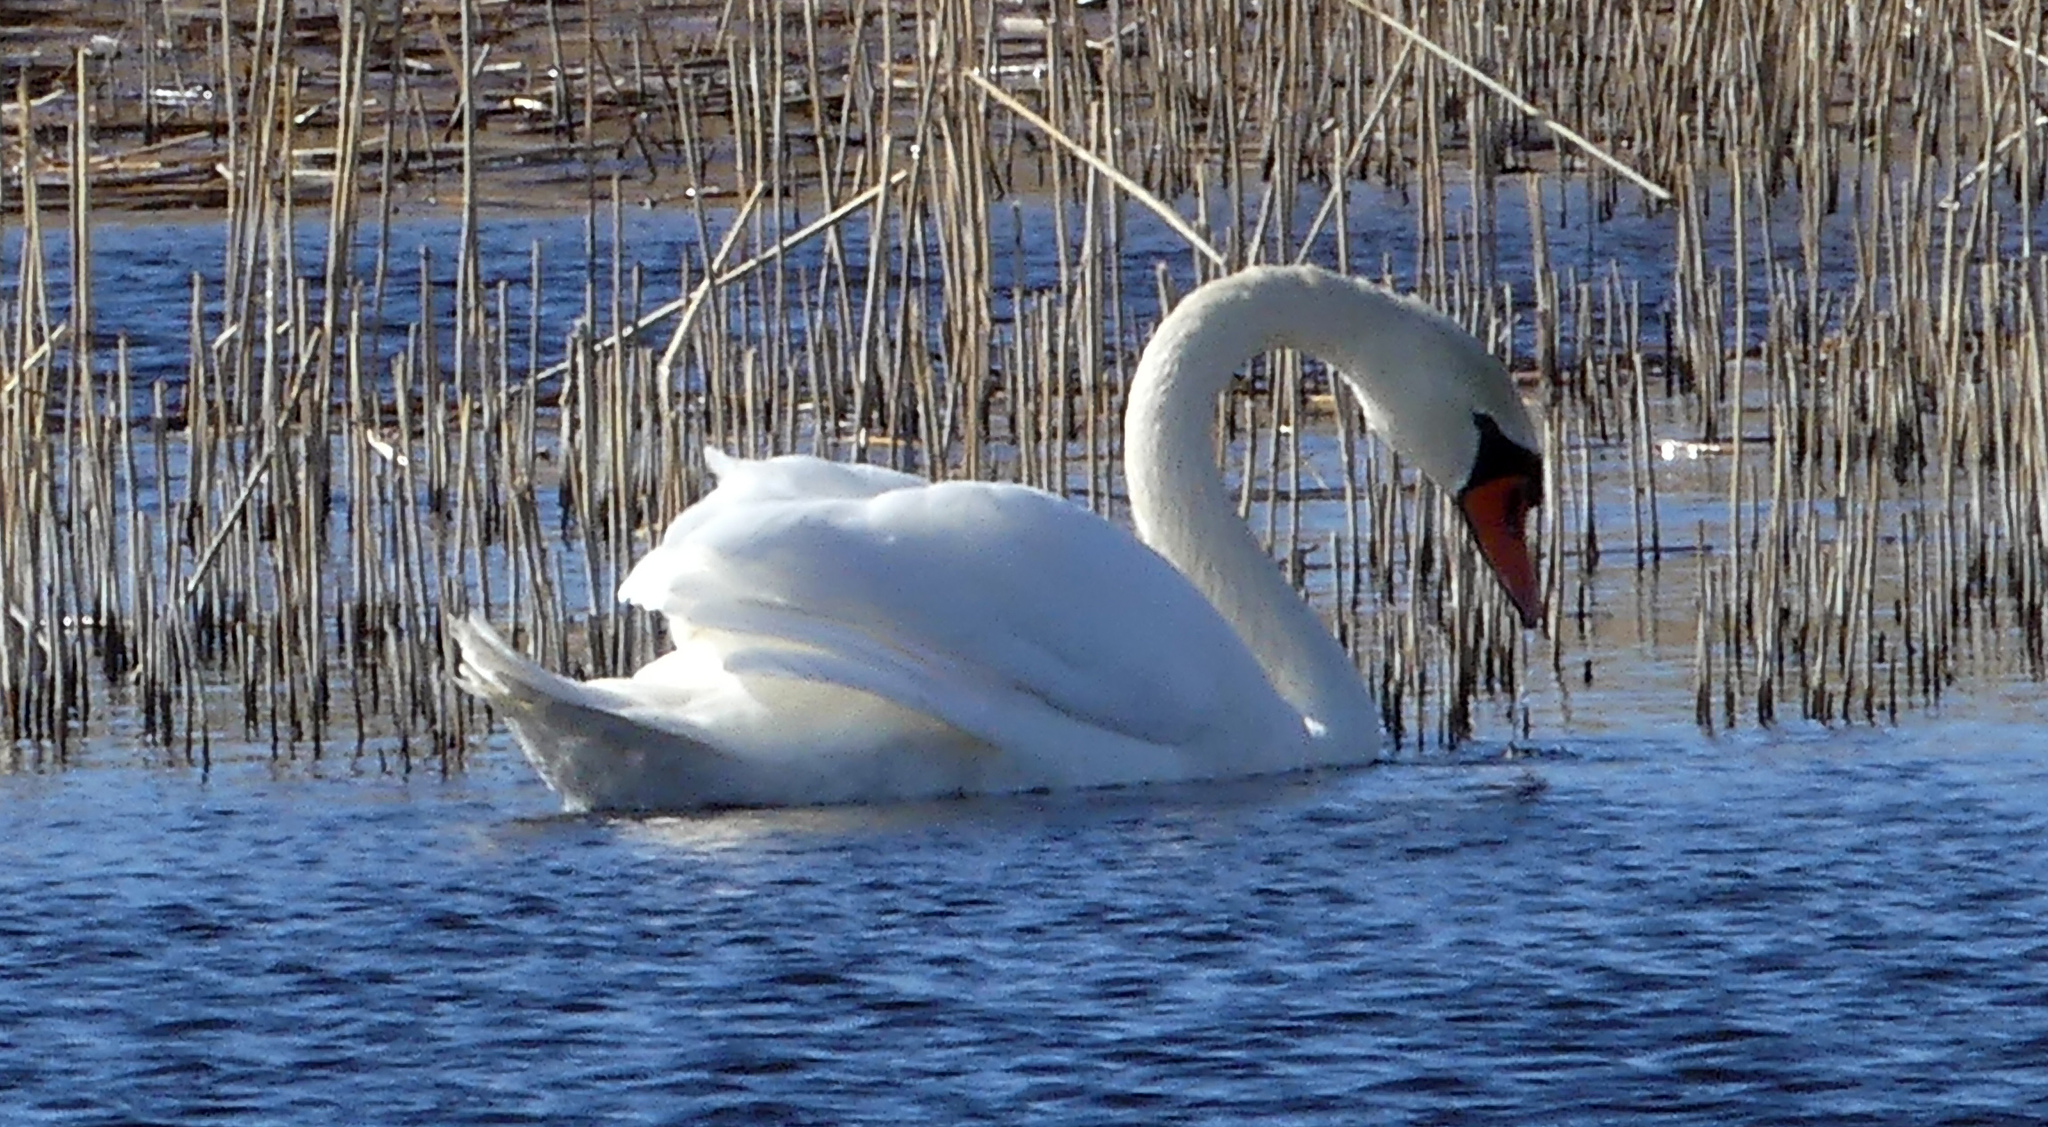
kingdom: Animalia
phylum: Chordata
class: Aves
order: Anseriformes
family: Anatidae
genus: Cygnus
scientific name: Cygnus olor
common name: Mute swan
